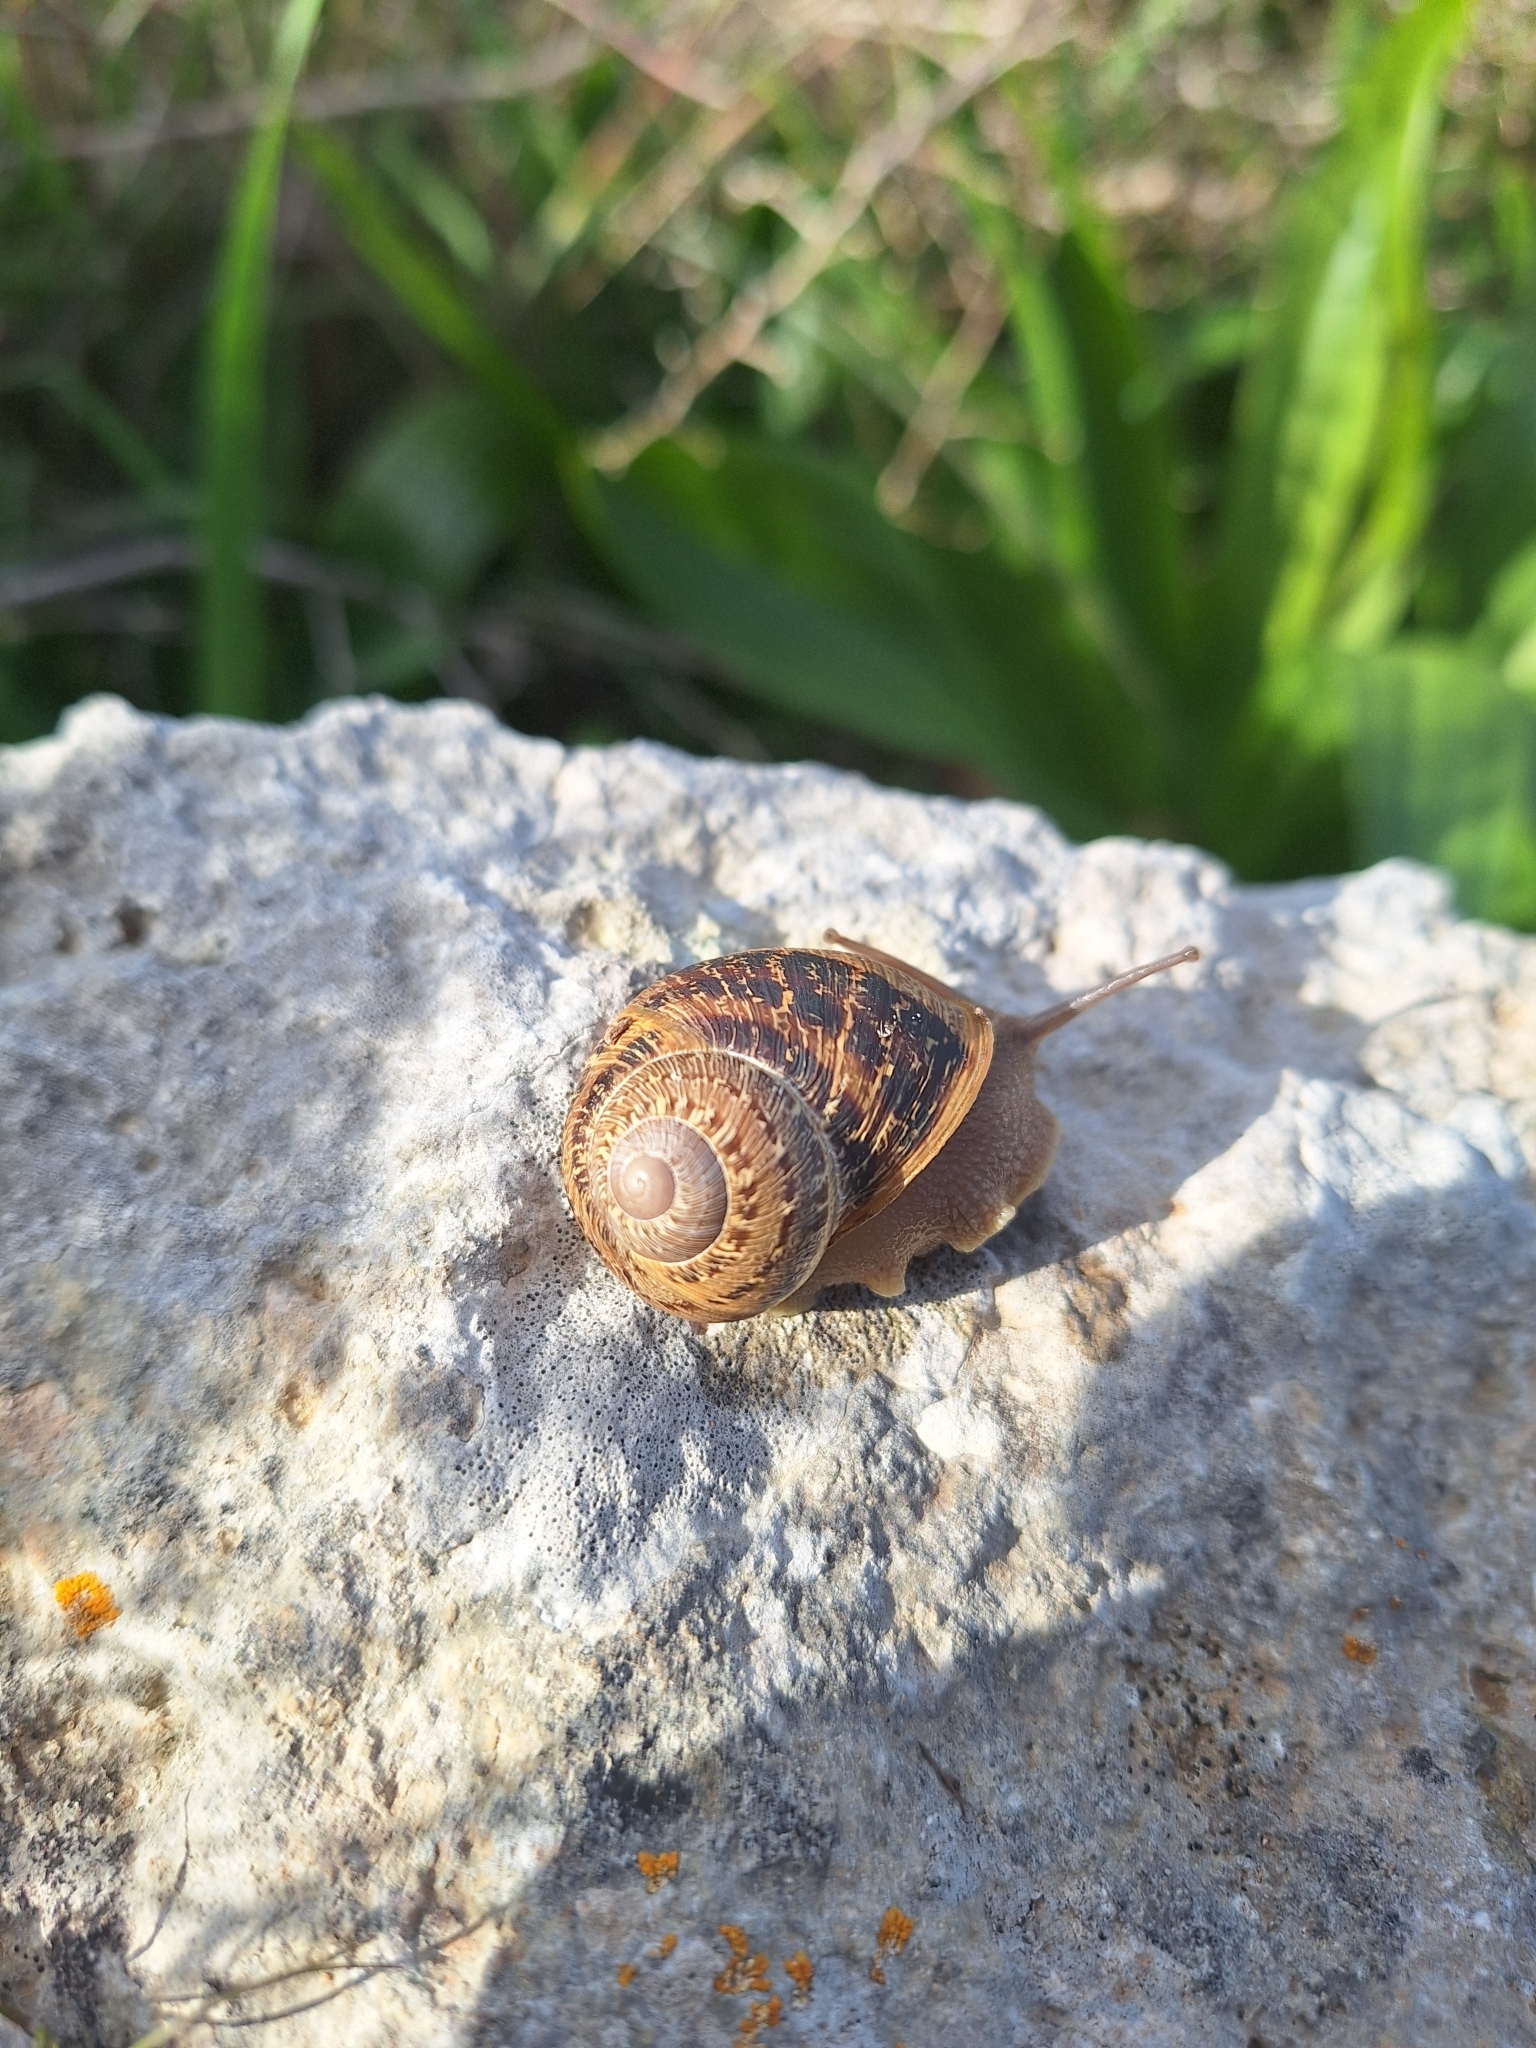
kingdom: Animalia
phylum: Mollusca
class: Gastropoda
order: Stylommatophora
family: Helicidae
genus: Cornu
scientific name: Cornu aspersum
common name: Brown garden snail
